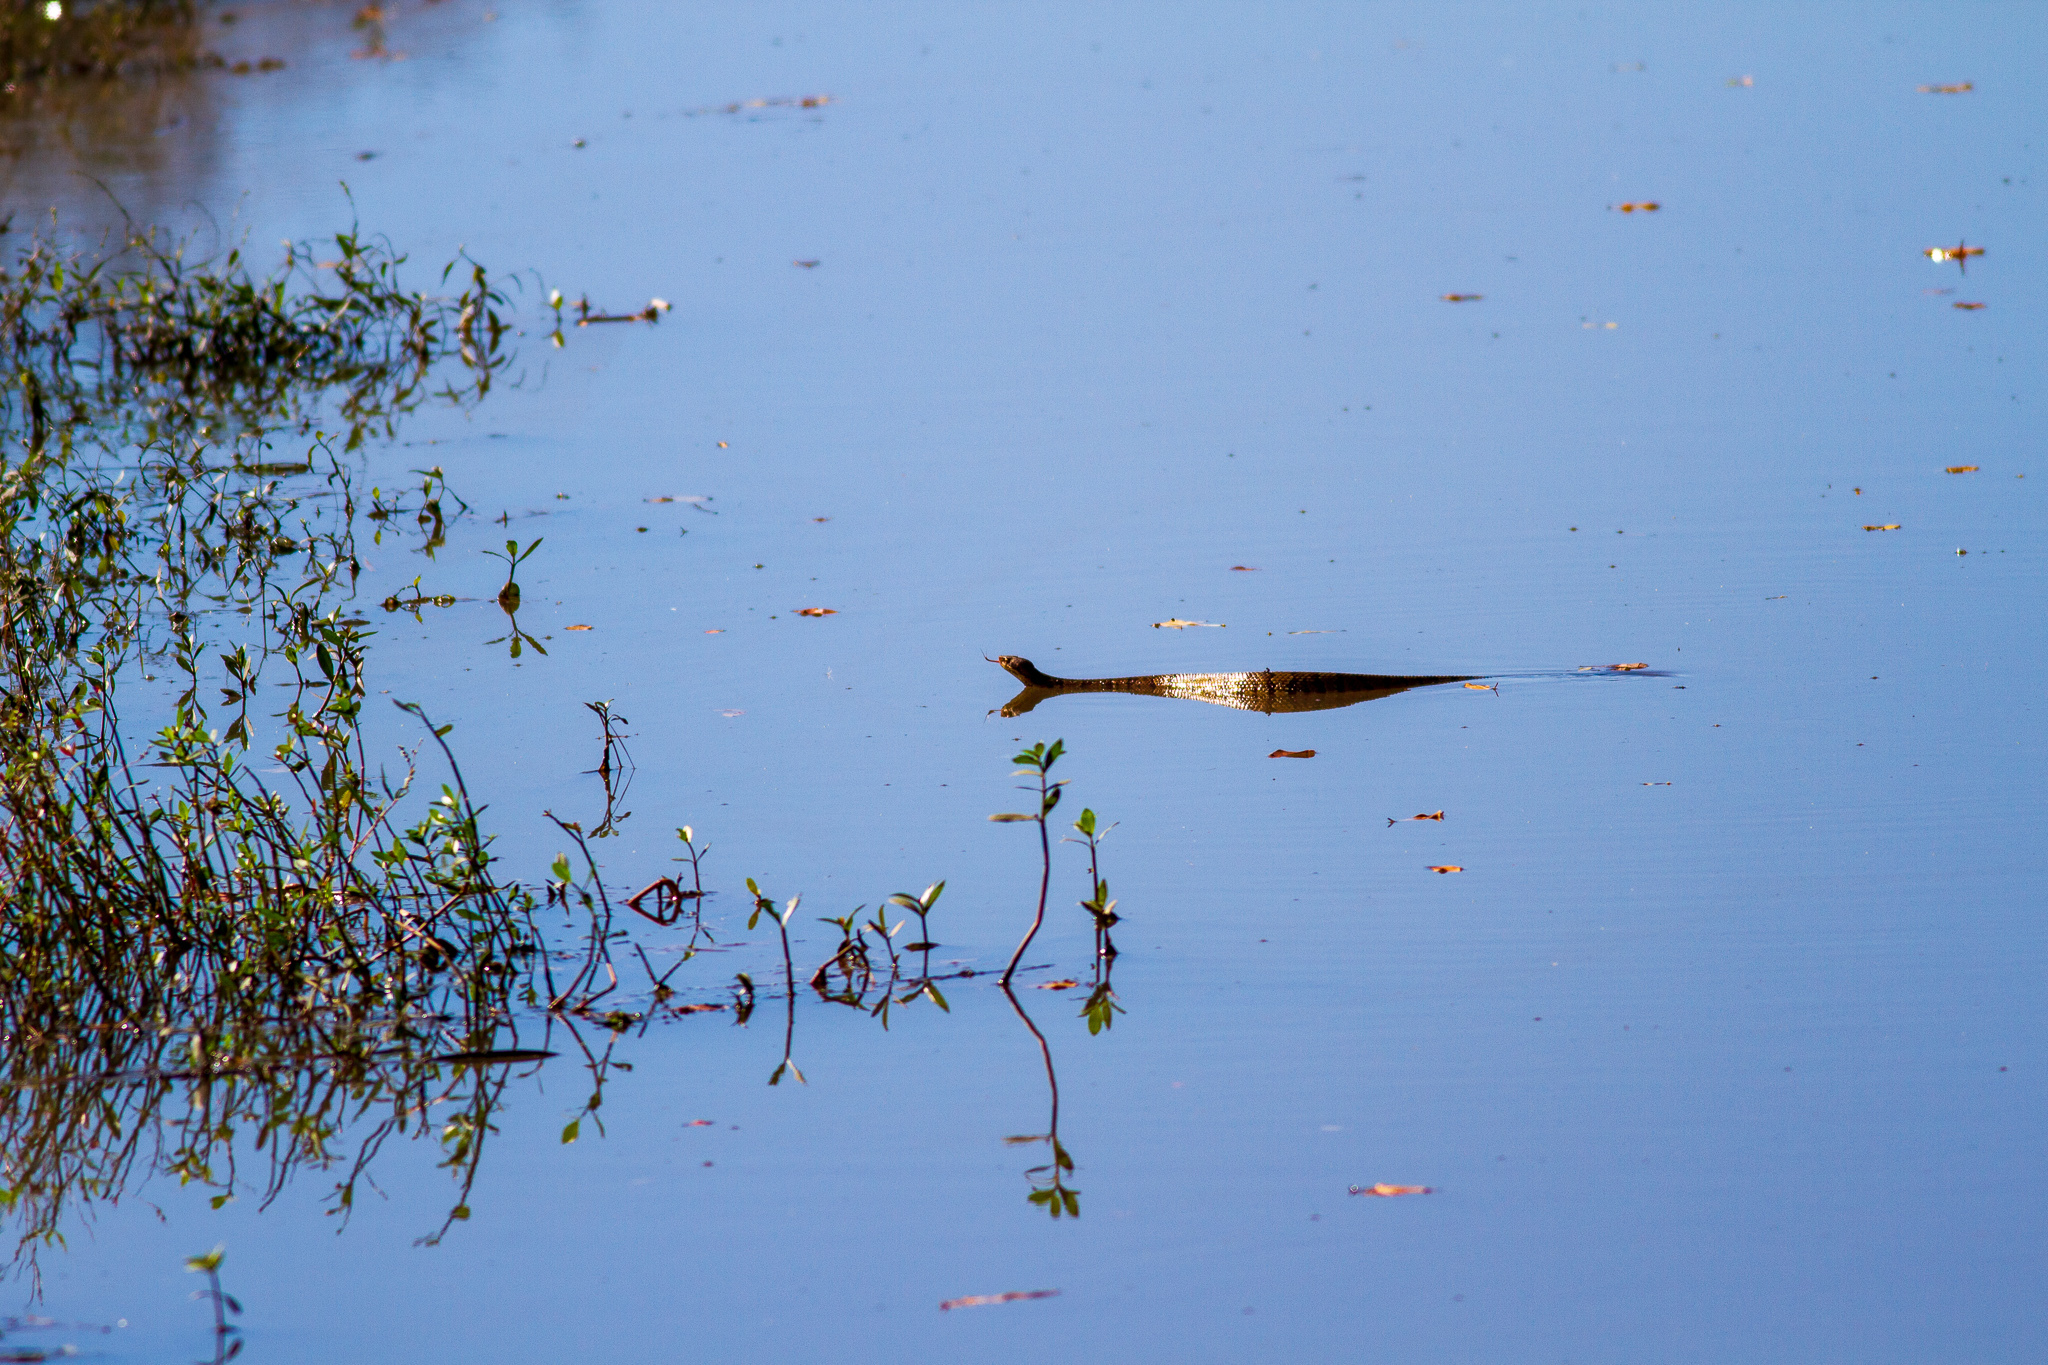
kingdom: Animalia
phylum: Chordata
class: Squamata
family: Viperidae
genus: Agkistrodon
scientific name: Agkistrodon piscivorus
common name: Cottonmouth
